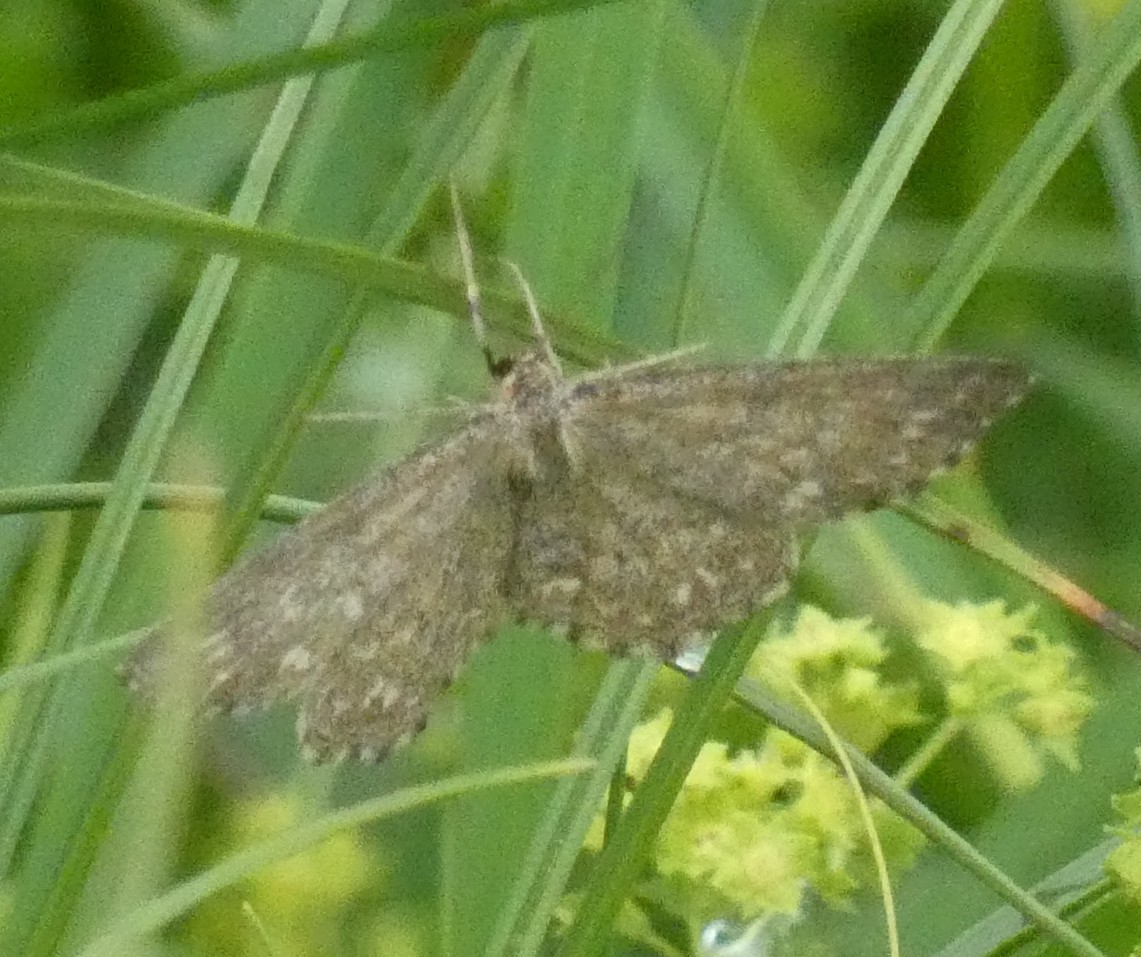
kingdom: Animalia
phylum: Arthropoda
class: Insecta
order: Lepidoptera
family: Geometridae
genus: Scopula
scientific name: Scopula immorata
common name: Lewes wave
